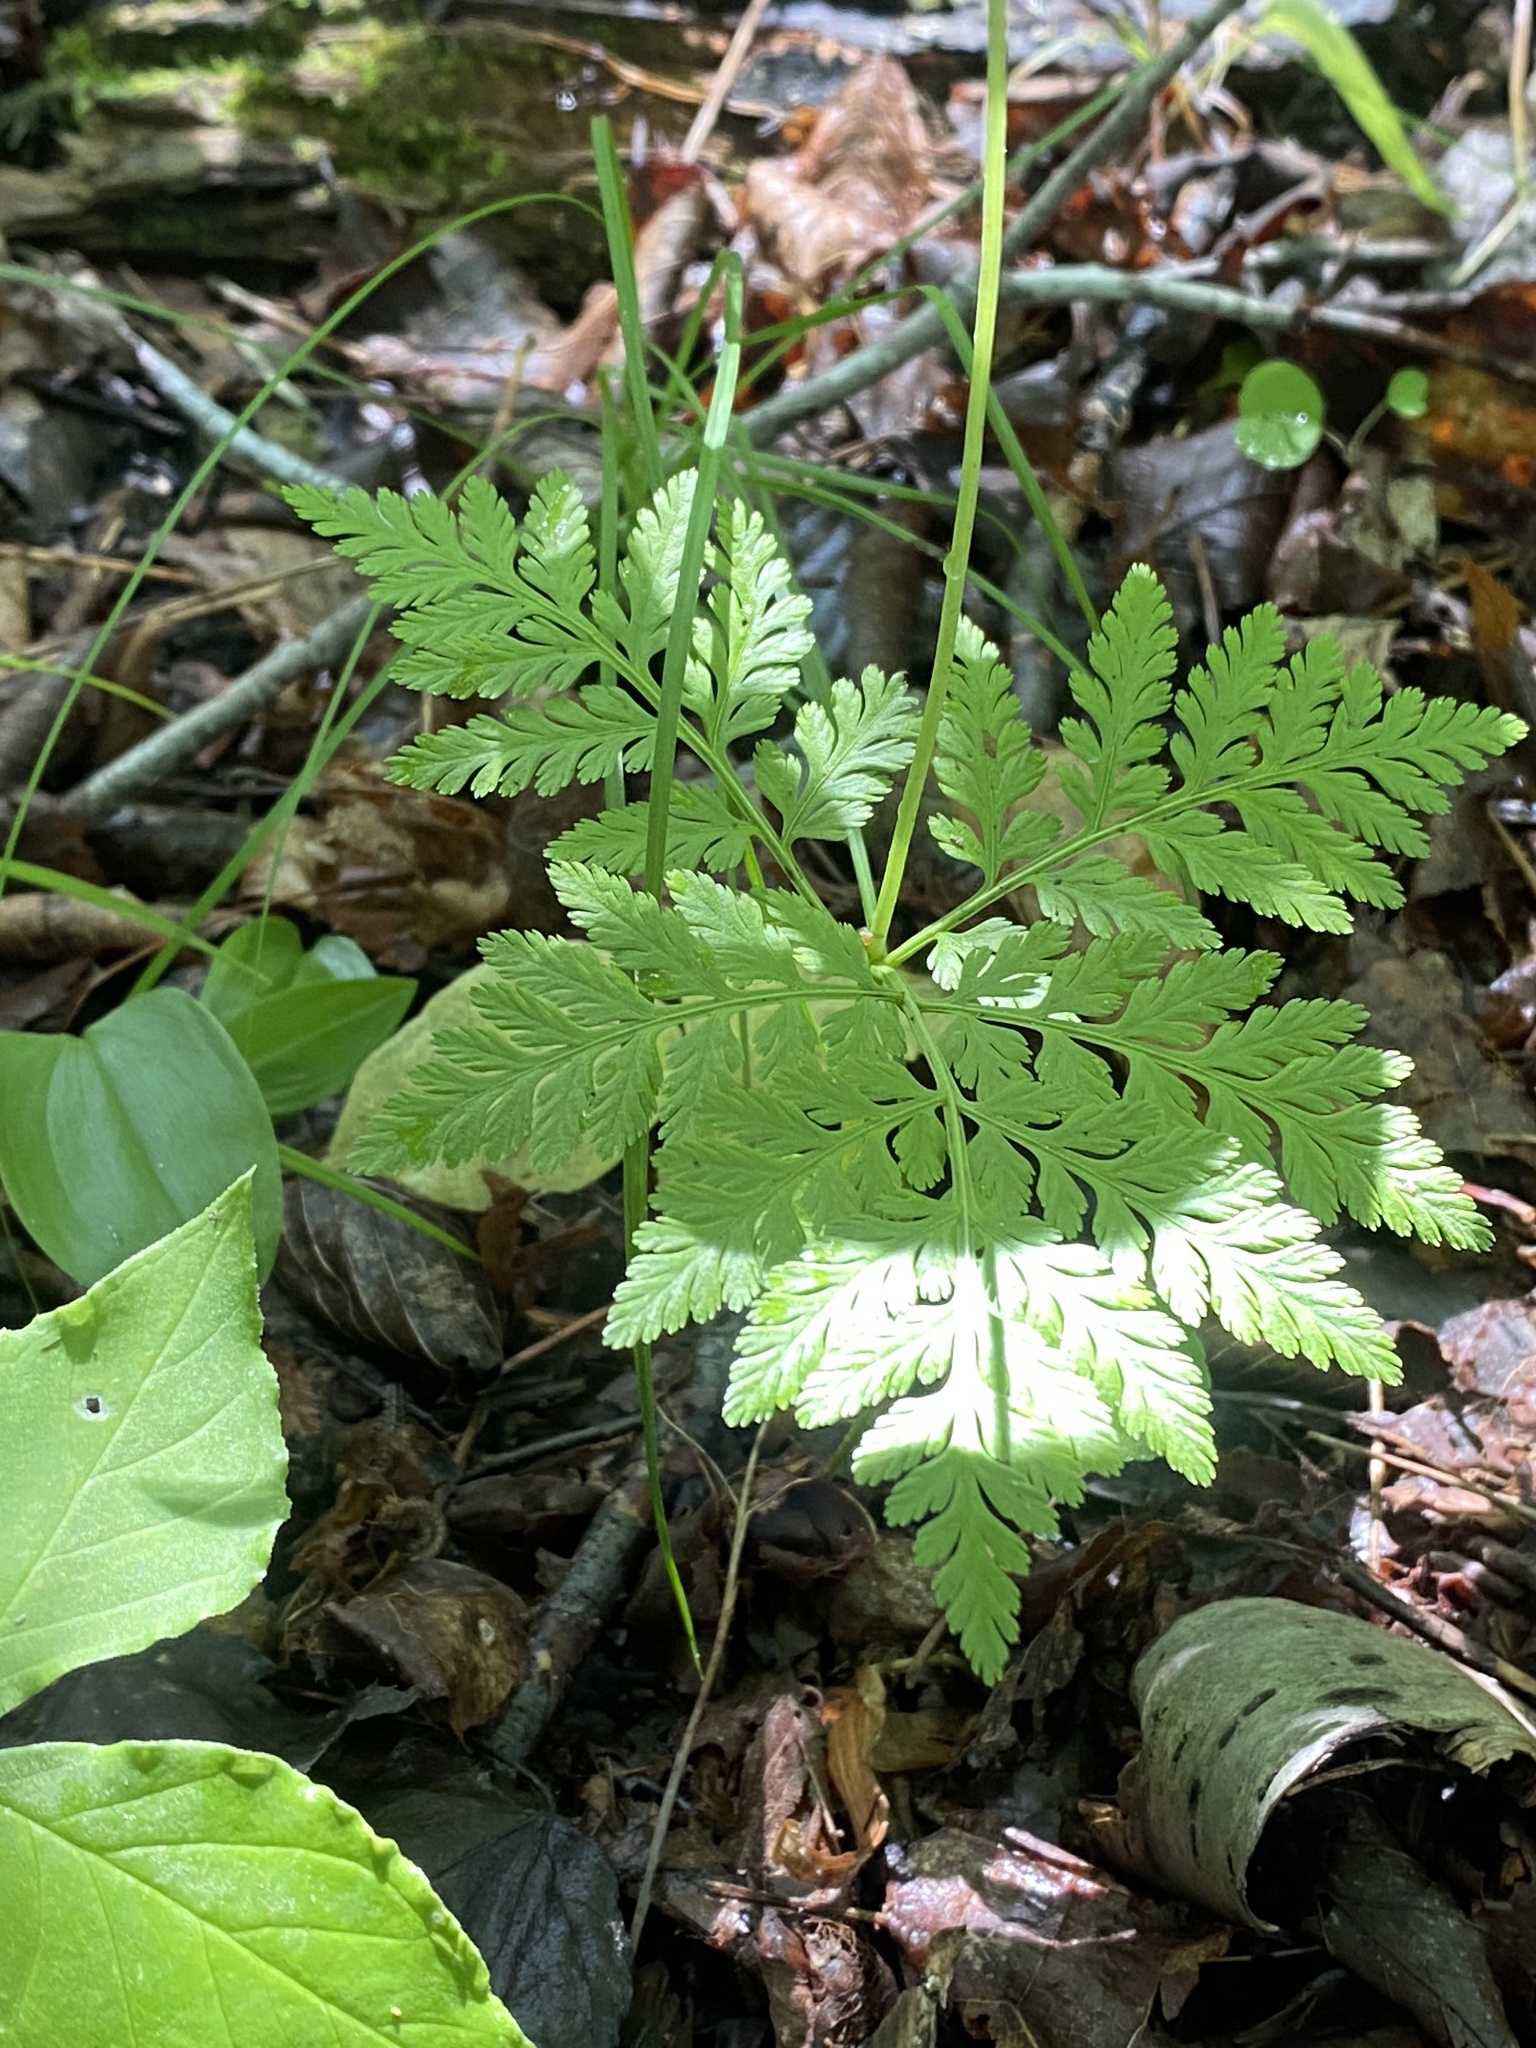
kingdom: Plantae
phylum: Tracheophyta
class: Polypodiopsida
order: Ophioglossales
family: Ophioglossaceae
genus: Botrypus
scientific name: Botrypus virginianus
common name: Common grapefern
